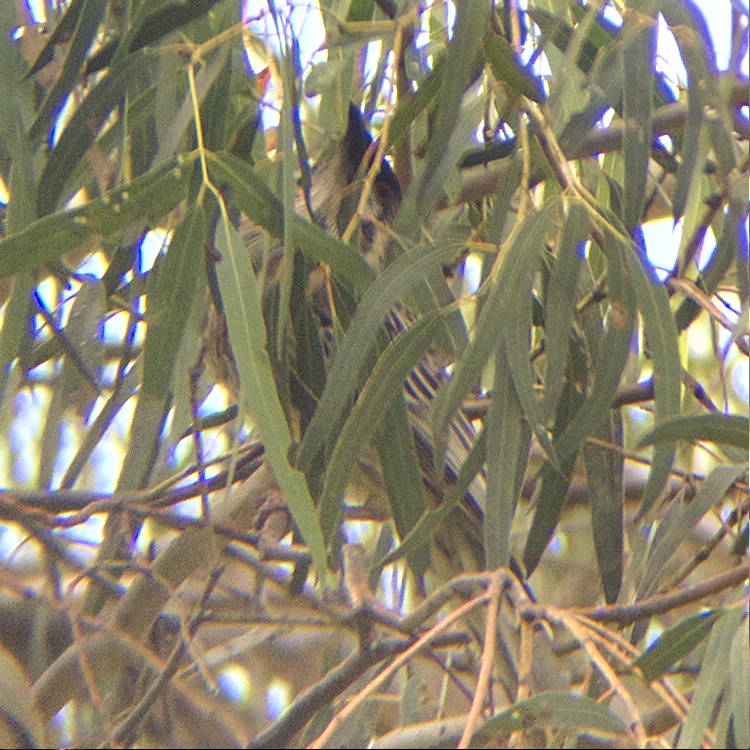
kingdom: Animalia
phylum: Chordata
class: Aves
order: Passeriformes
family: Meliphagidae
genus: Anthochaera
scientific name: Anthochaera carunculata
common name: Red wattlebird
